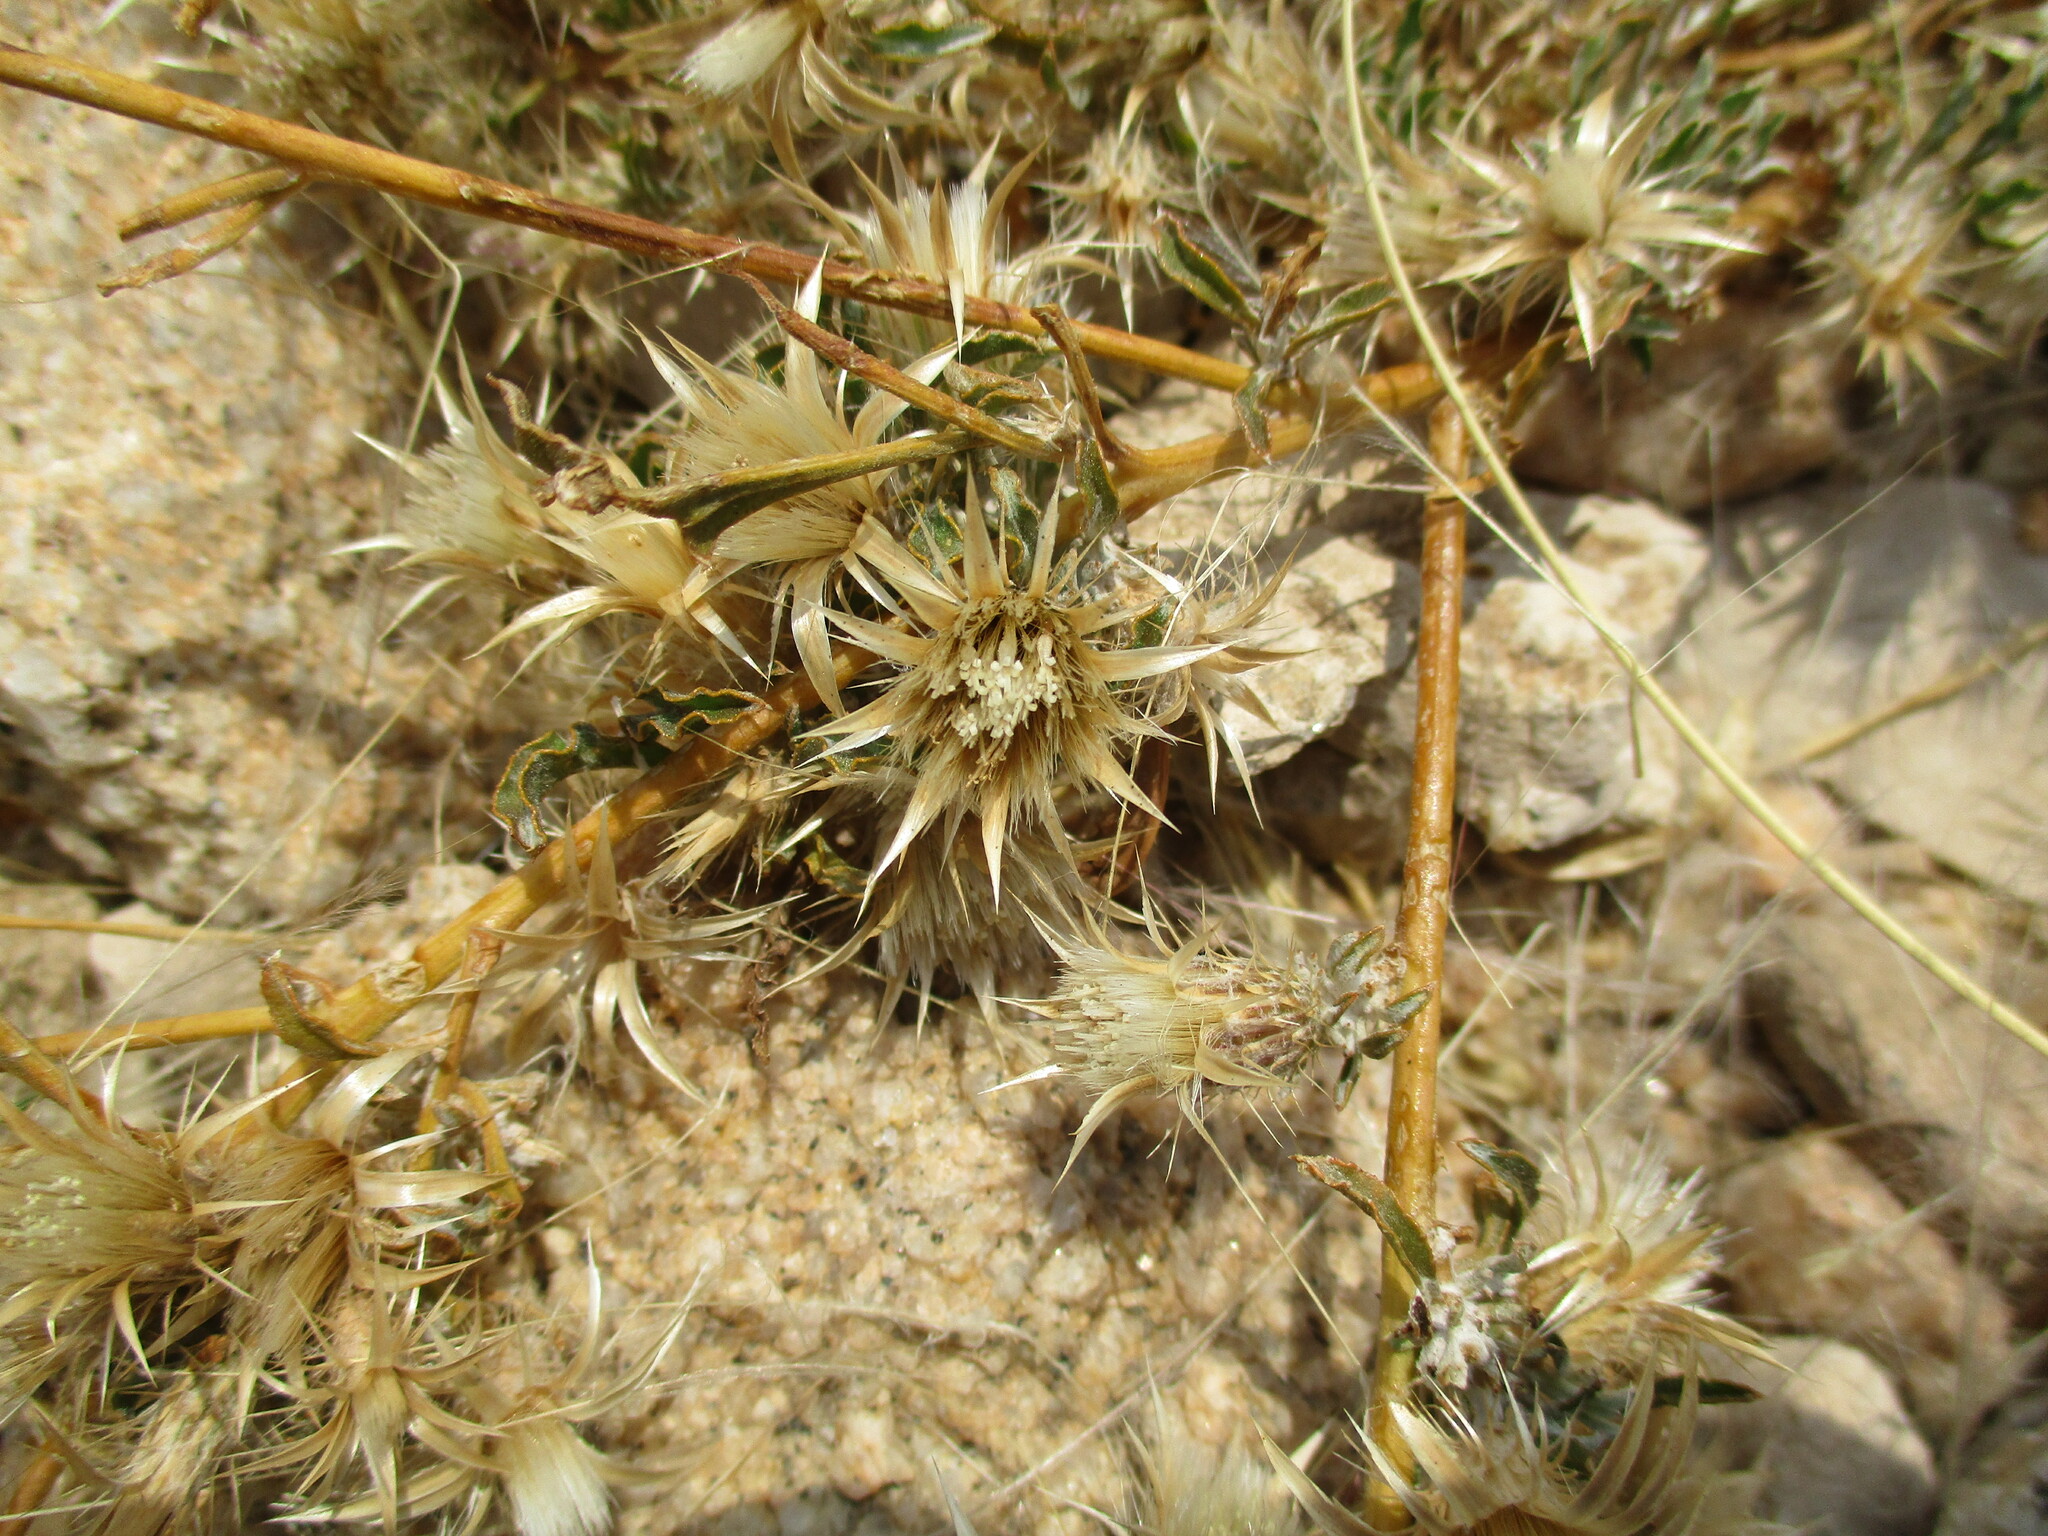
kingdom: Plantae
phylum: Tracheophyta
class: Magnoliopsida
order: Asterales
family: Asteraceae
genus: Dicoma
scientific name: Dicoma capensis
